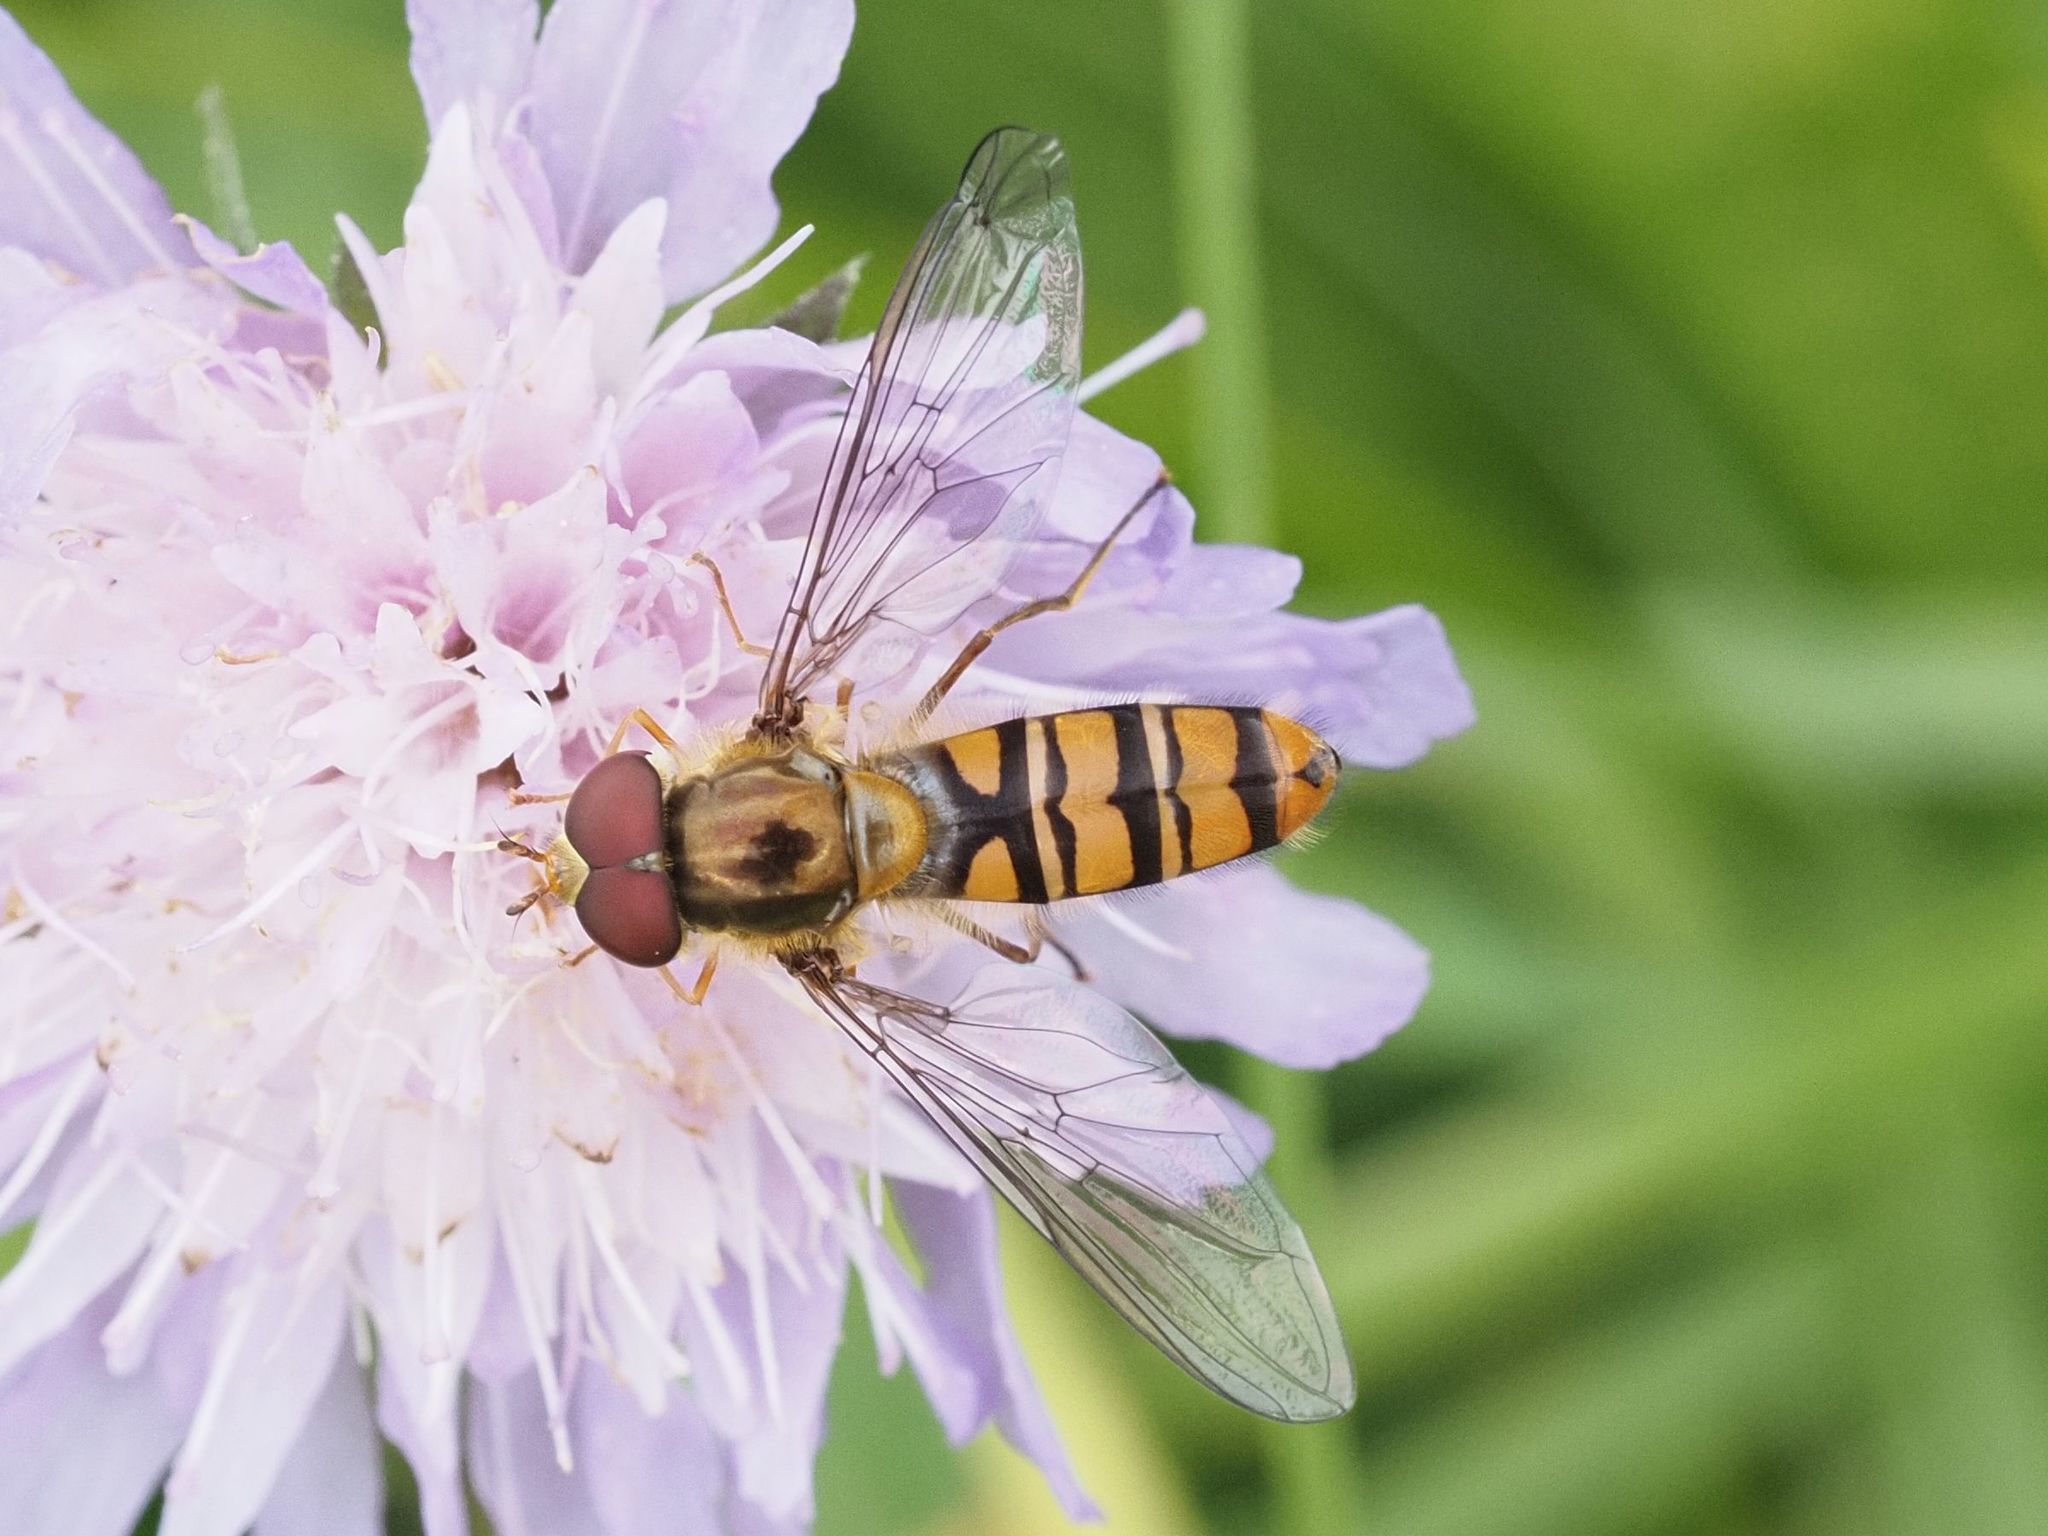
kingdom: Animalia
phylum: Arthropoda
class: Insecta
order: Diptera
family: Syrphidae
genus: Episyrphus
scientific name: Episyrphus balteatus
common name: Marmalade hoverfly
